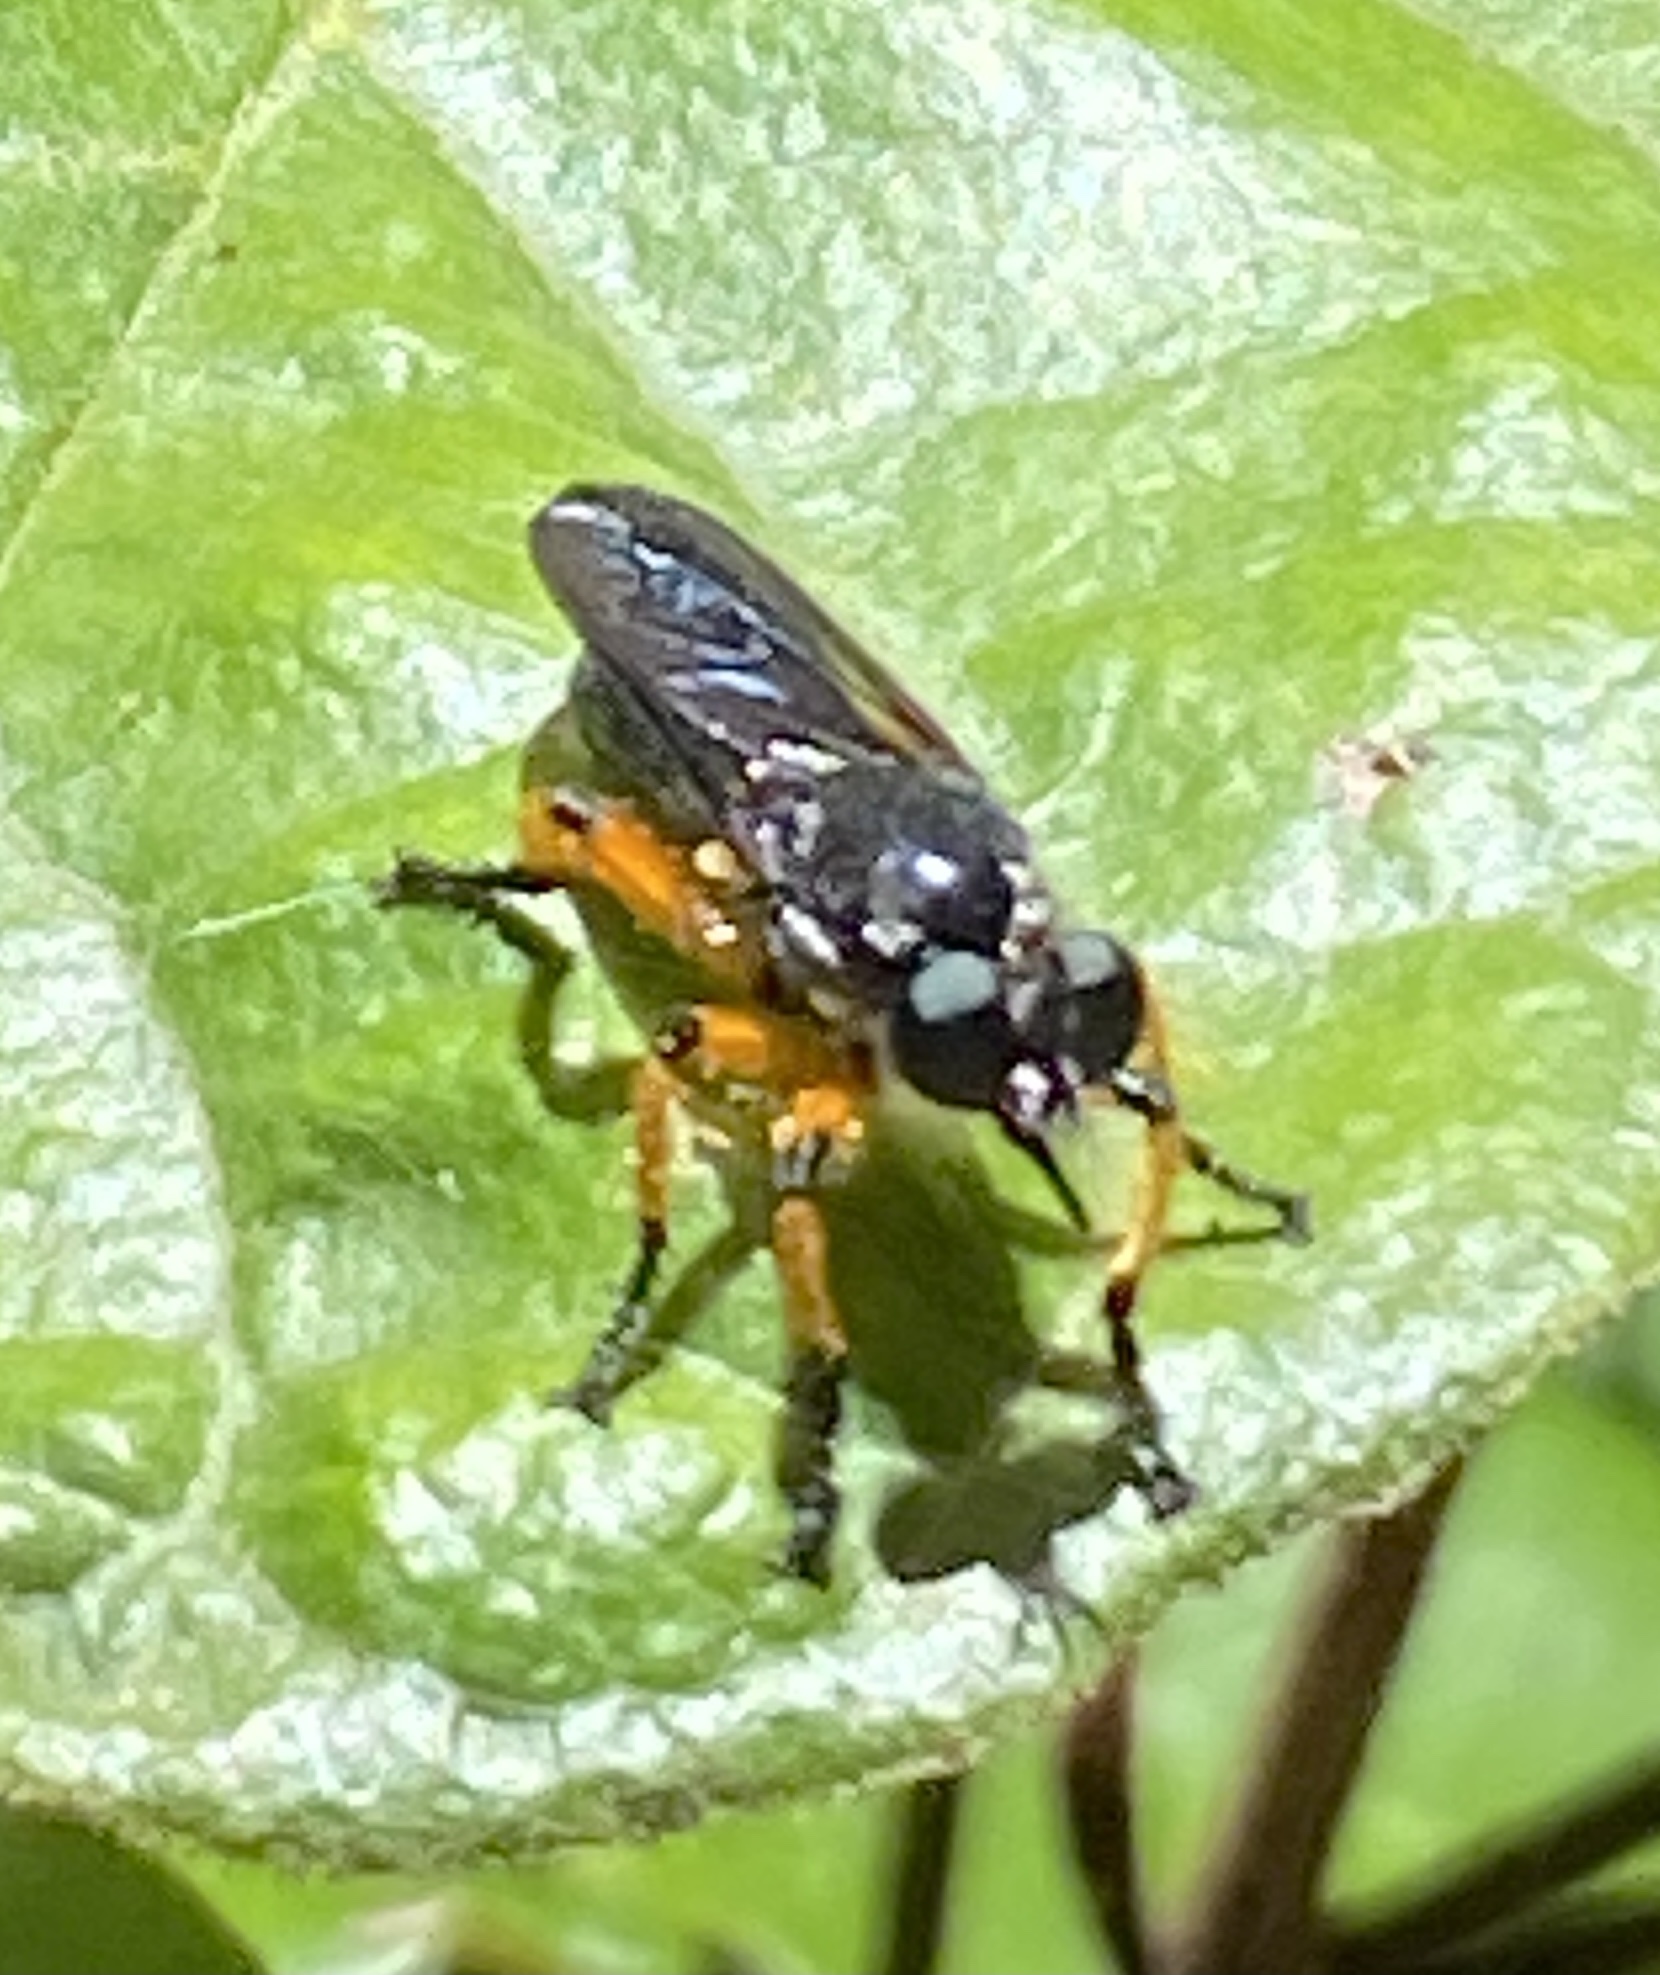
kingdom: Animalia
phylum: Arthropoda
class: Insecta
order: Diptera
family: Asilidae
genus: Laphria
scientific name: Laphria flavipes
